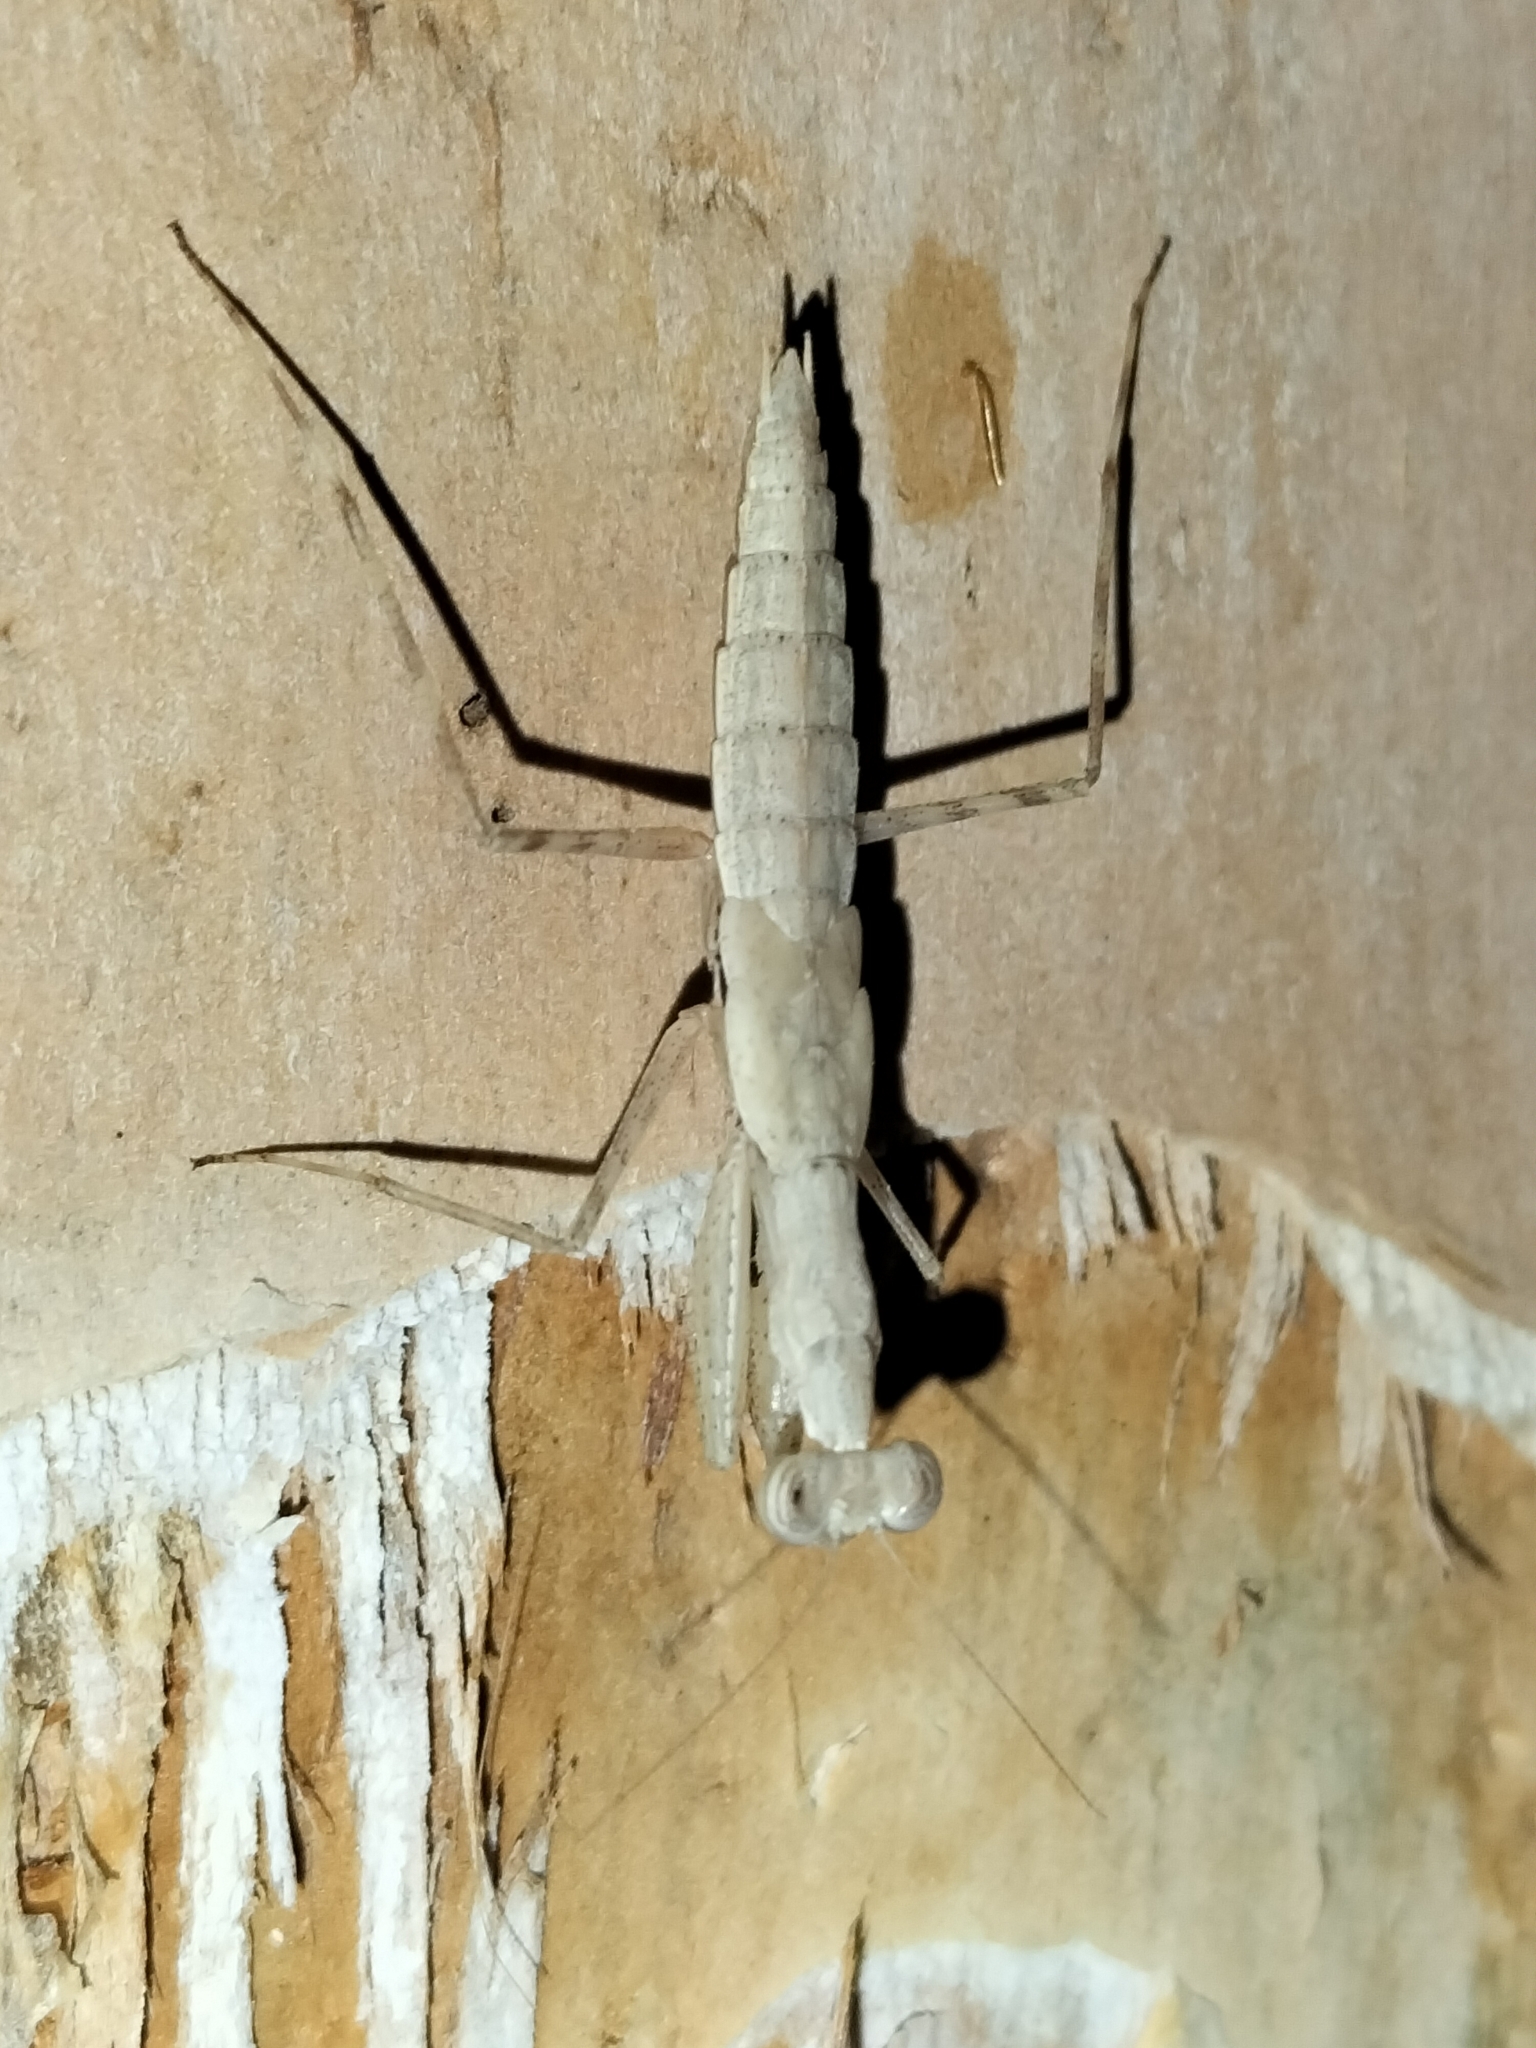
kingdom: Animalia
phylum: Arthropoda
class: Insecta
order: Mantodea
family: Nanomantidae
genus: Ima
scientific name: Ima fusca
